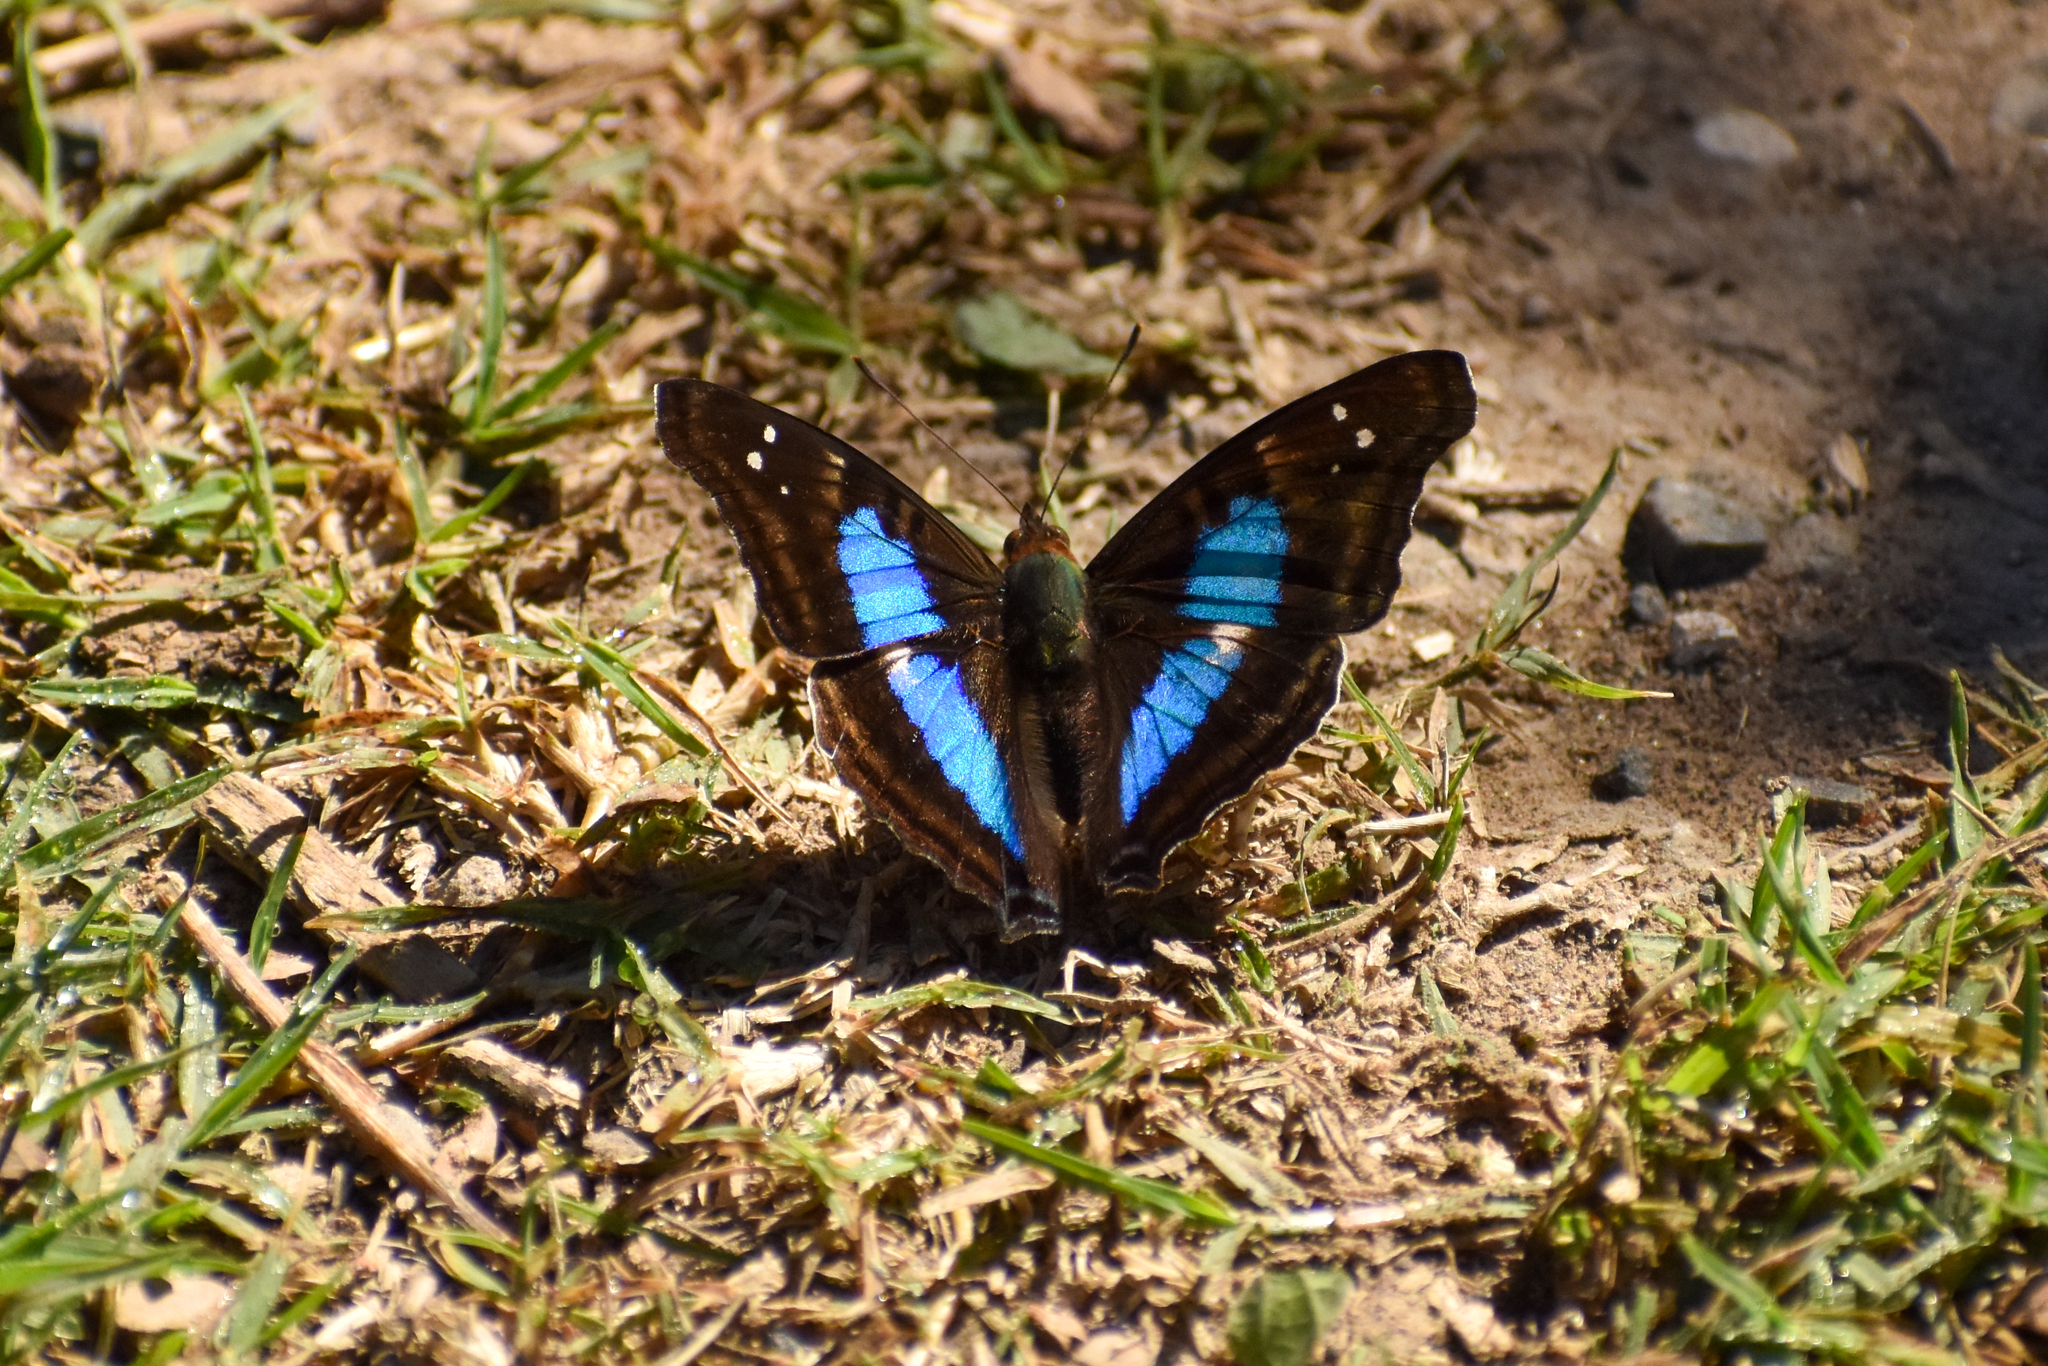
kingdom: Animalia
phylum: Arthropoda
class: Insecta
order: Lepidoptera
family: Nymphalidae
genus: Doxocopa
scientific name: Doxocopa laurentia
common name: Turquoise emperor
